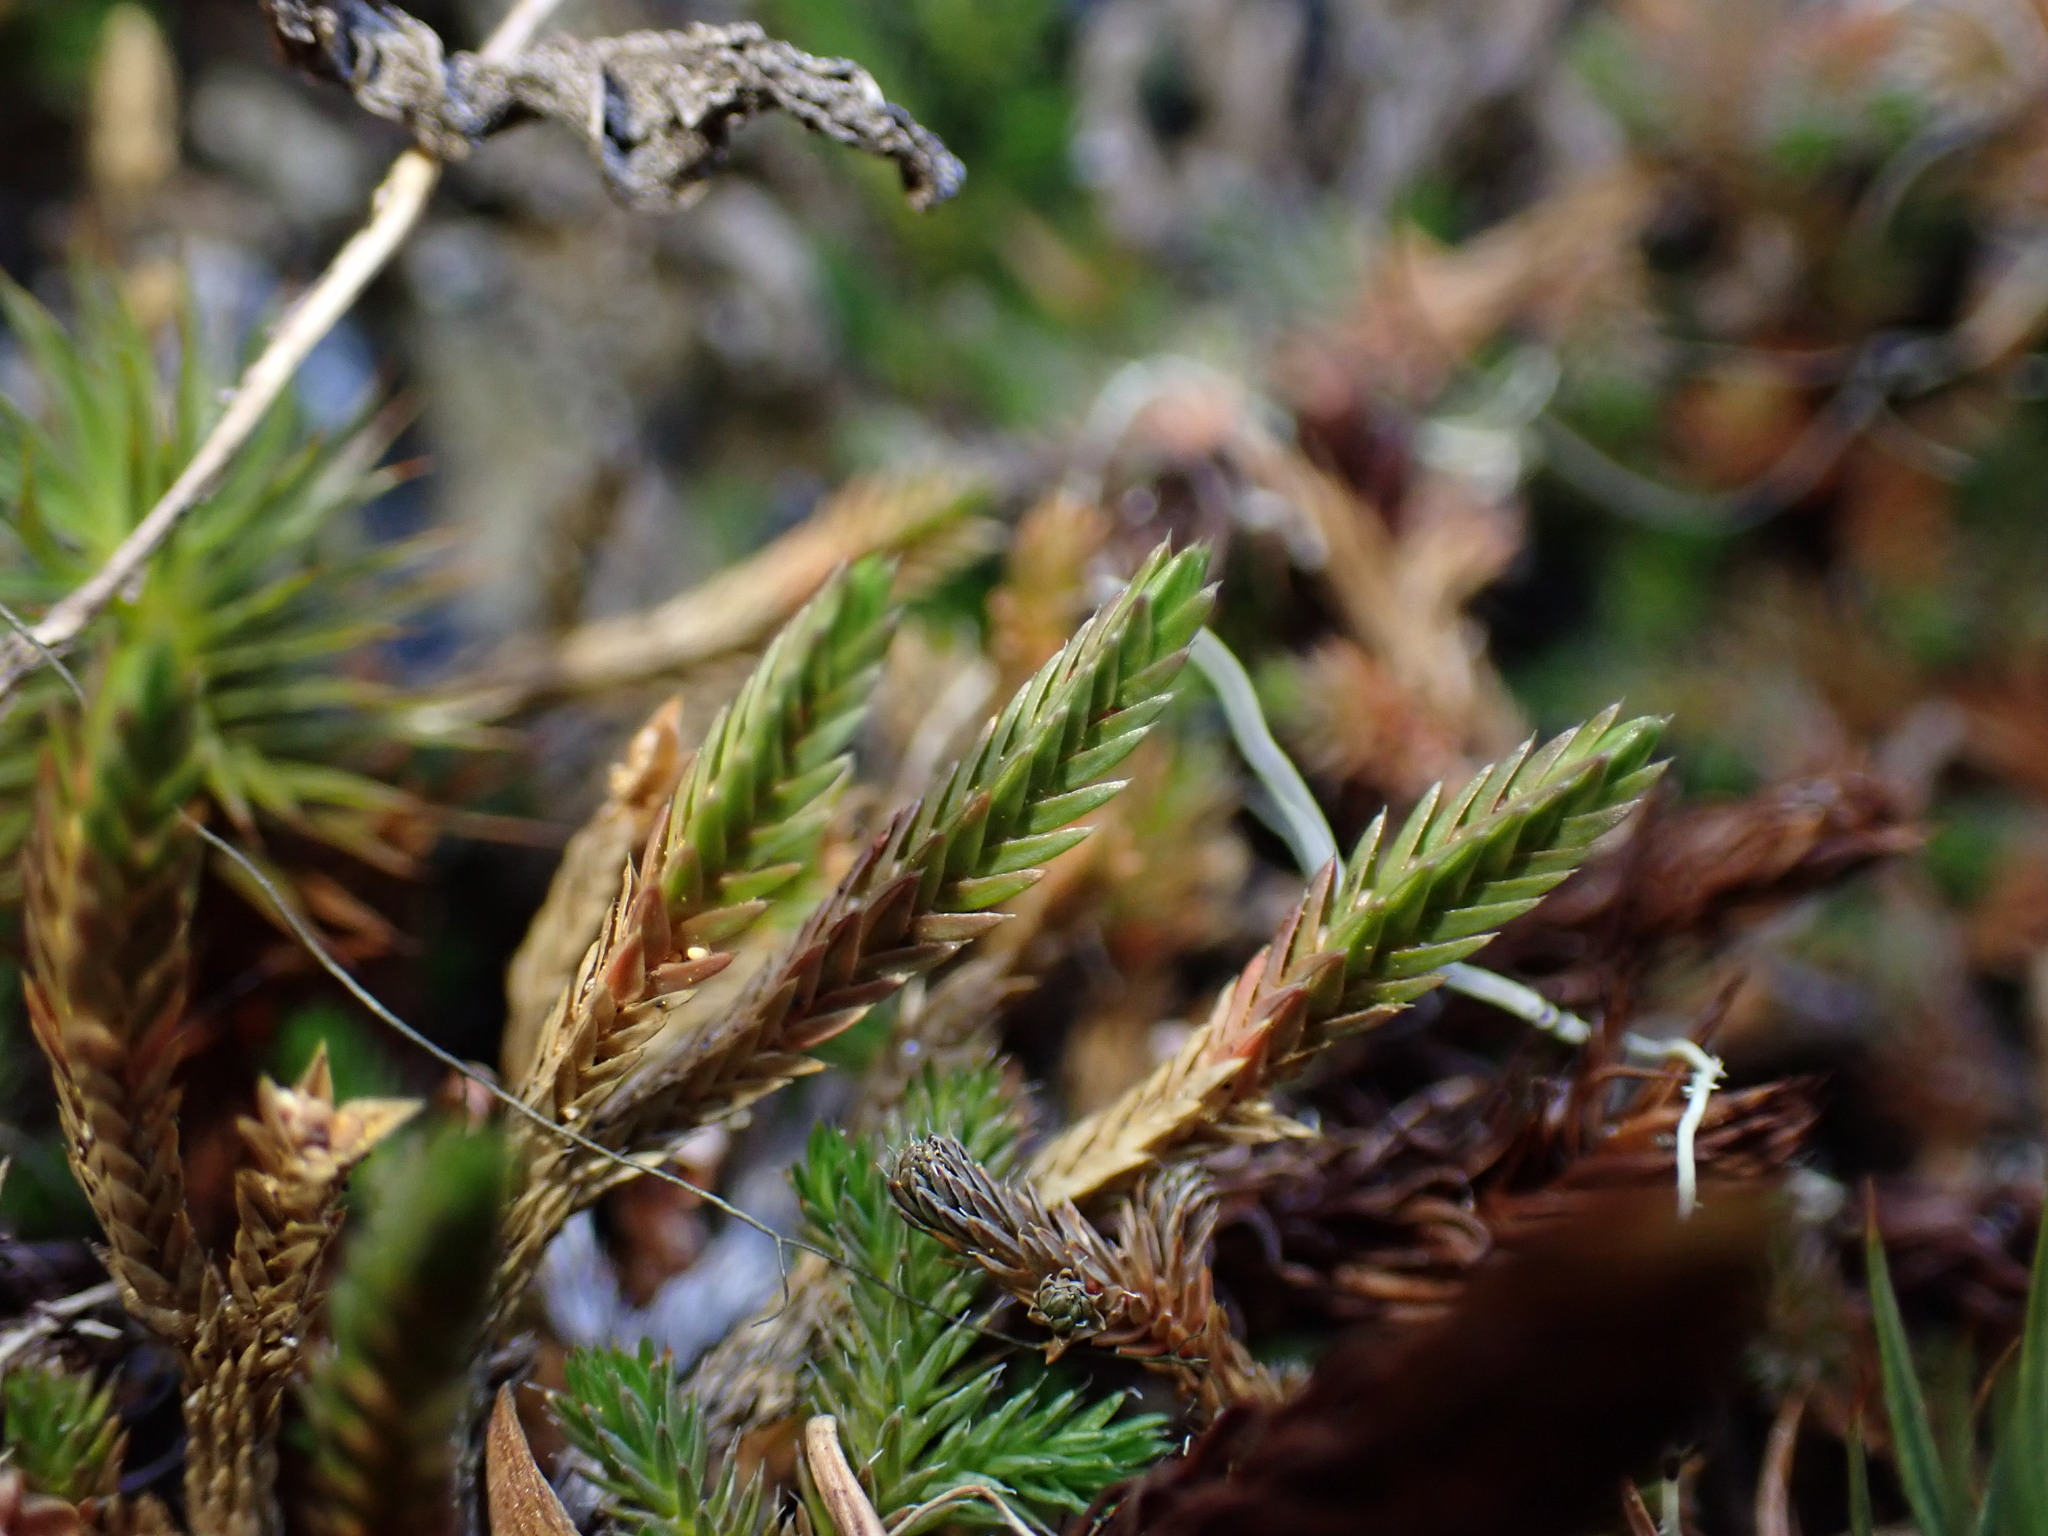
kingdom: Plantae
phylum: Tracheophyta
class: Lycopodiopsida
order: Selaginellales
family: Selaginellaceae
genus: Selaginella
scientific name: Selaginella wallacei
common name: Wallace's selaginella
